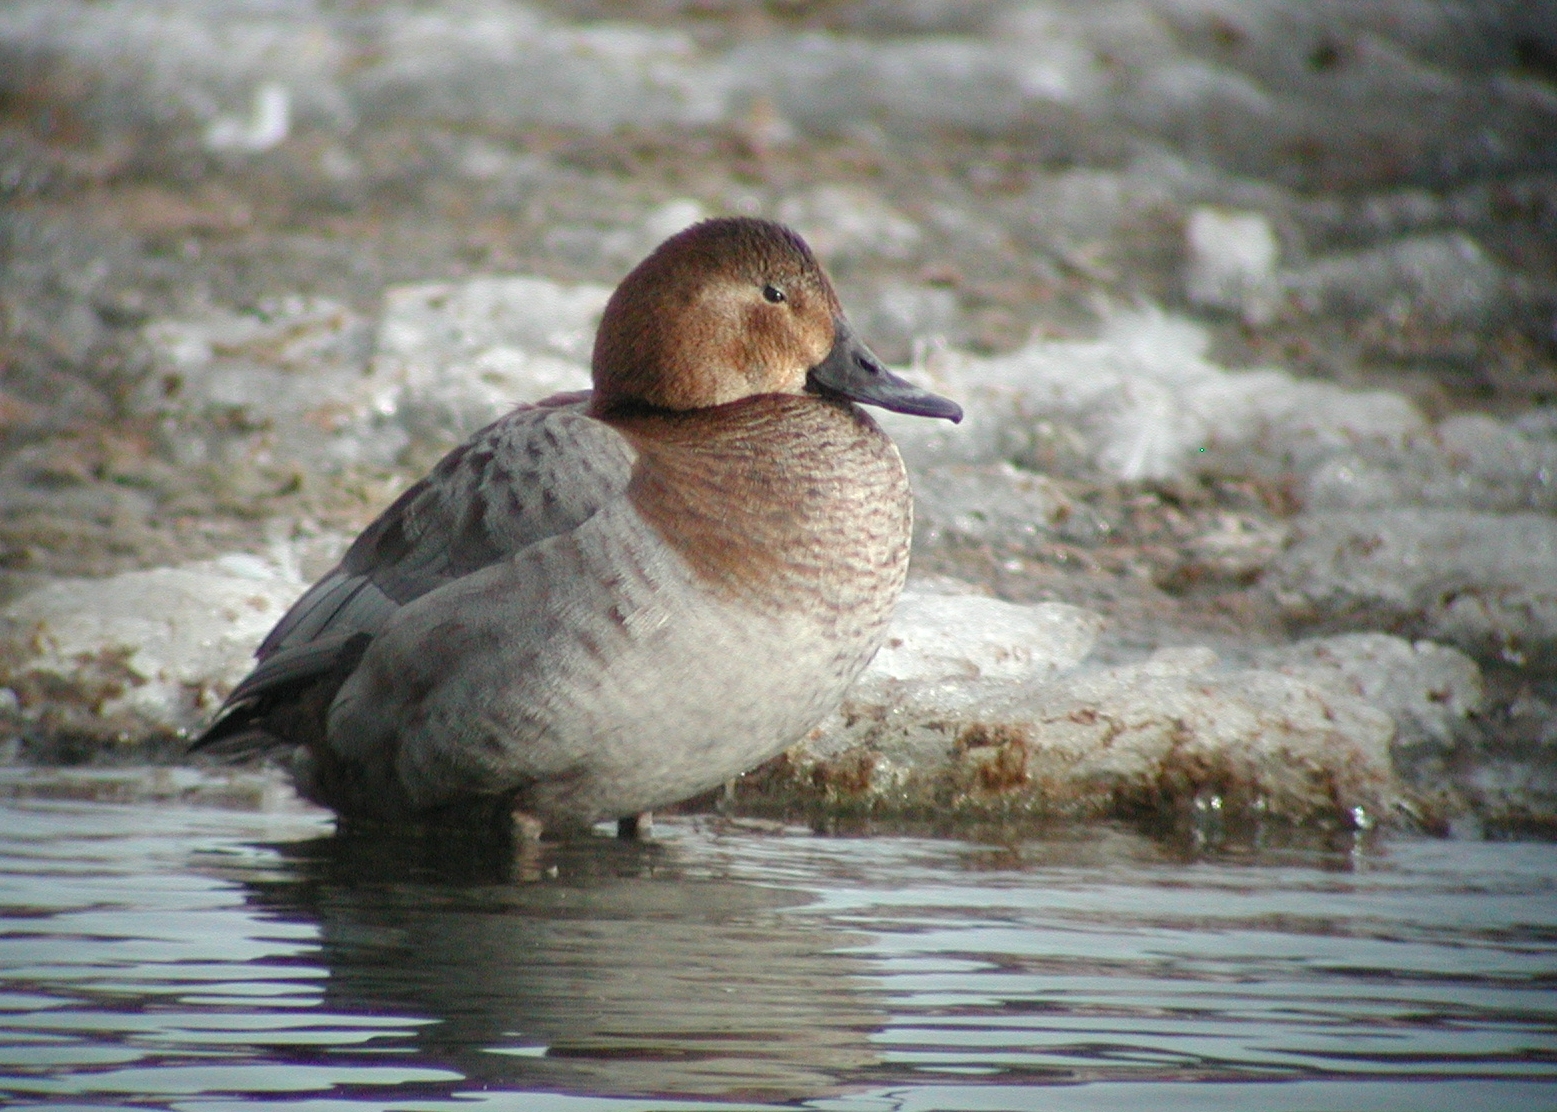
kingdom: Animalia
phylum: Chordata
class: Aves
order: Anseriformes
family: Anatidae
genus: Aythya
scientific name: Aythya ferina
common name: Common pochard
